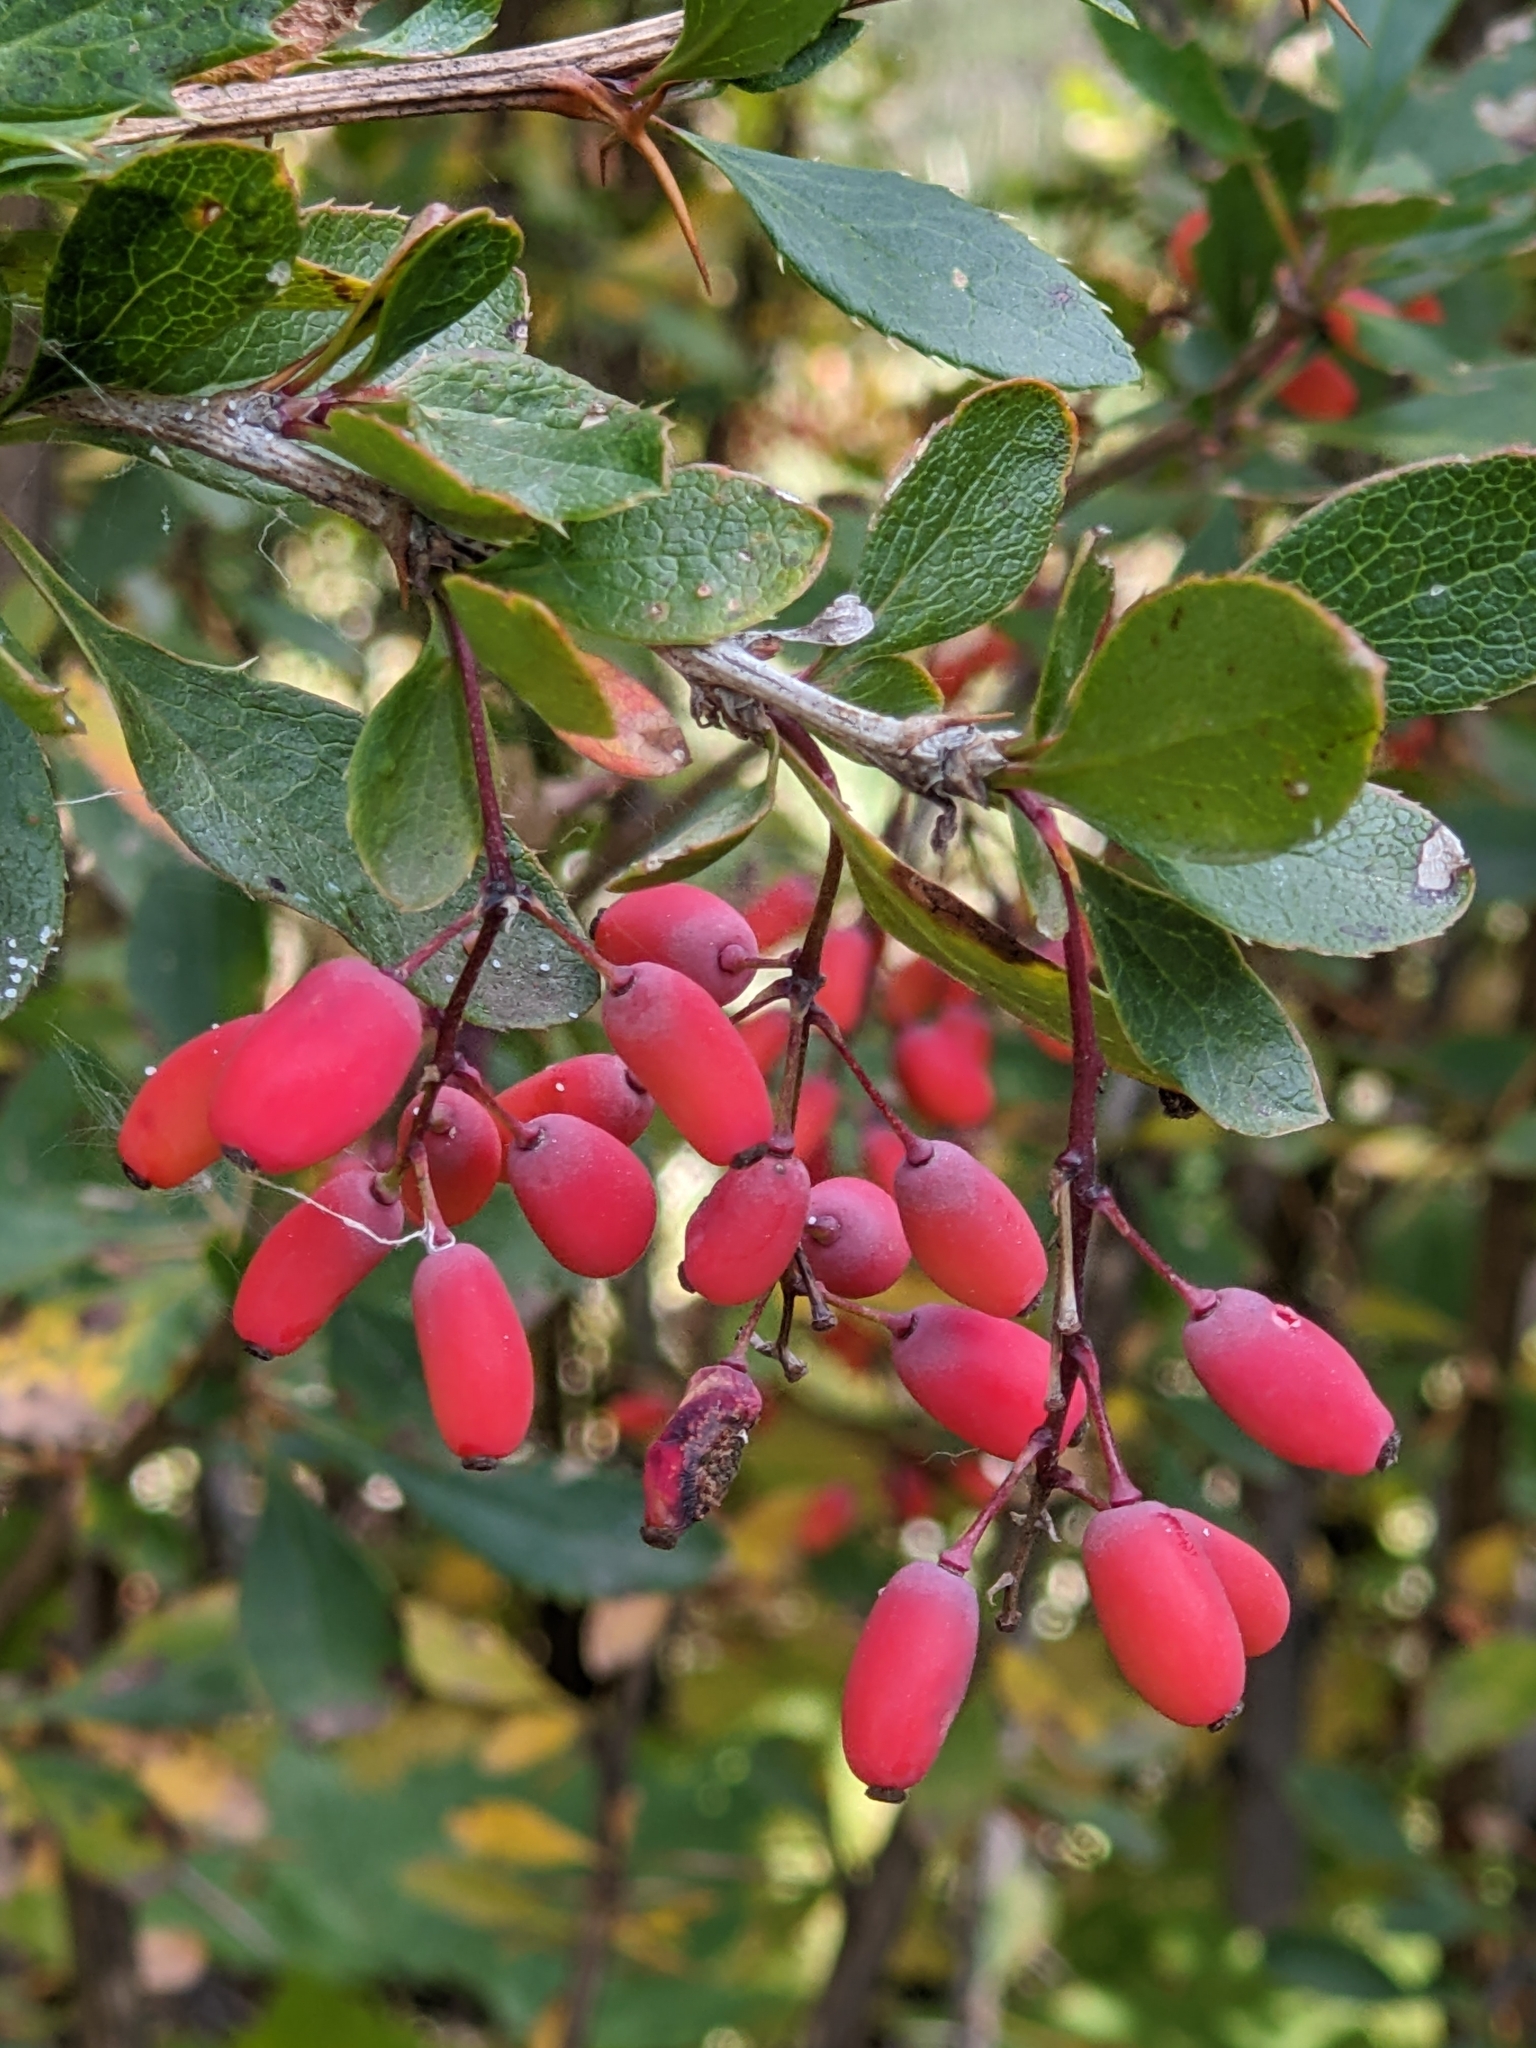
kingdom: Plantae
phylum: Tracheophyta
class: Magnoliopsida
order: Ranunculales
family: Berberidaceae
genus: Berberis
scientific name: Berberis vulgaris
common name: Barberry
